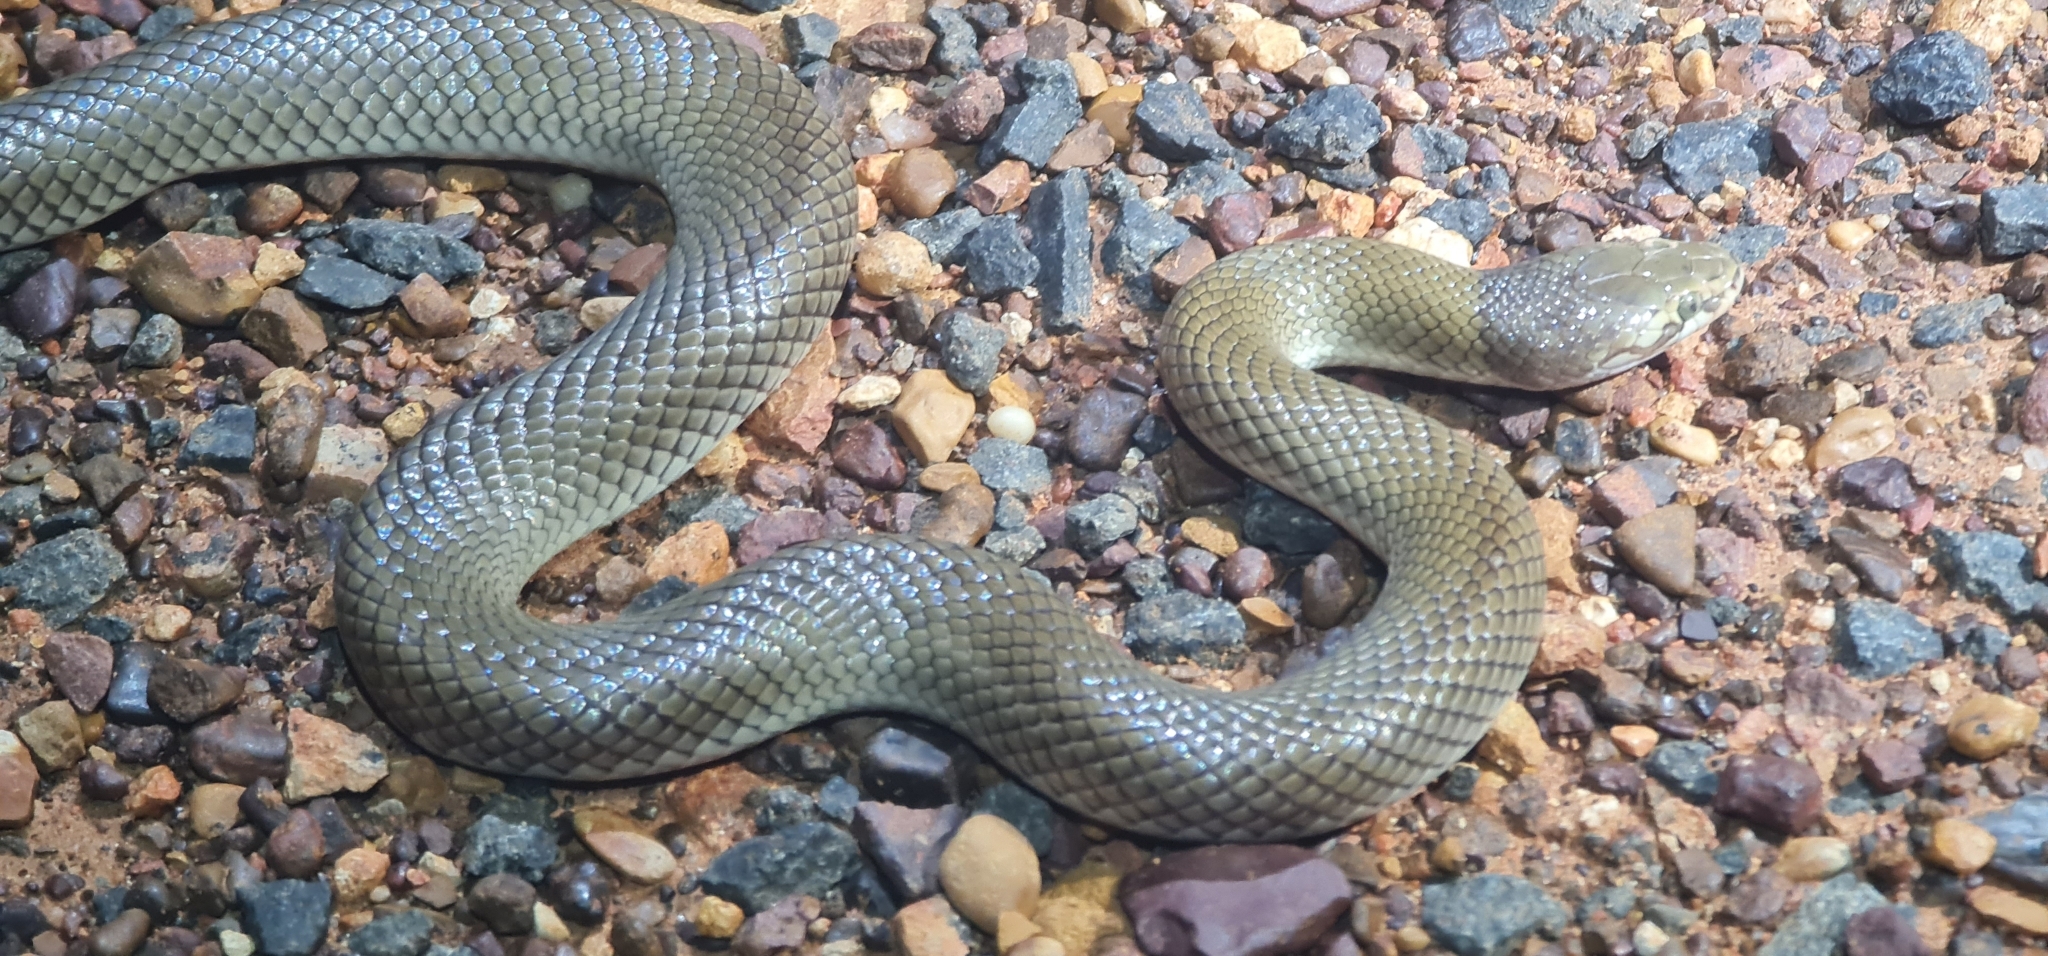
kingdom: Animalia
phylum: Chordata
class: Squamata
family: Elapidae
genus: Suta
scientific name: Suta suta
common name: Curl snake
